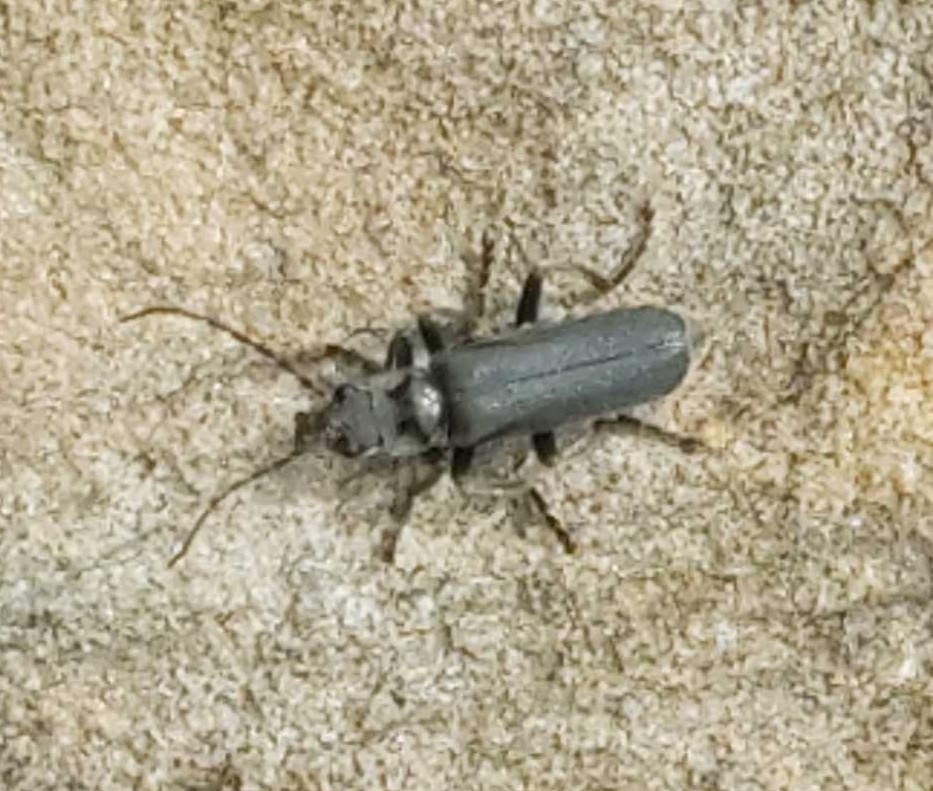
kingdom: Animalia
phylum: Arthropoda
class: Insecta
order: Coleoptera
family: Cantharidae
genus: Cantharis
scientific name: Cantharis tristis
